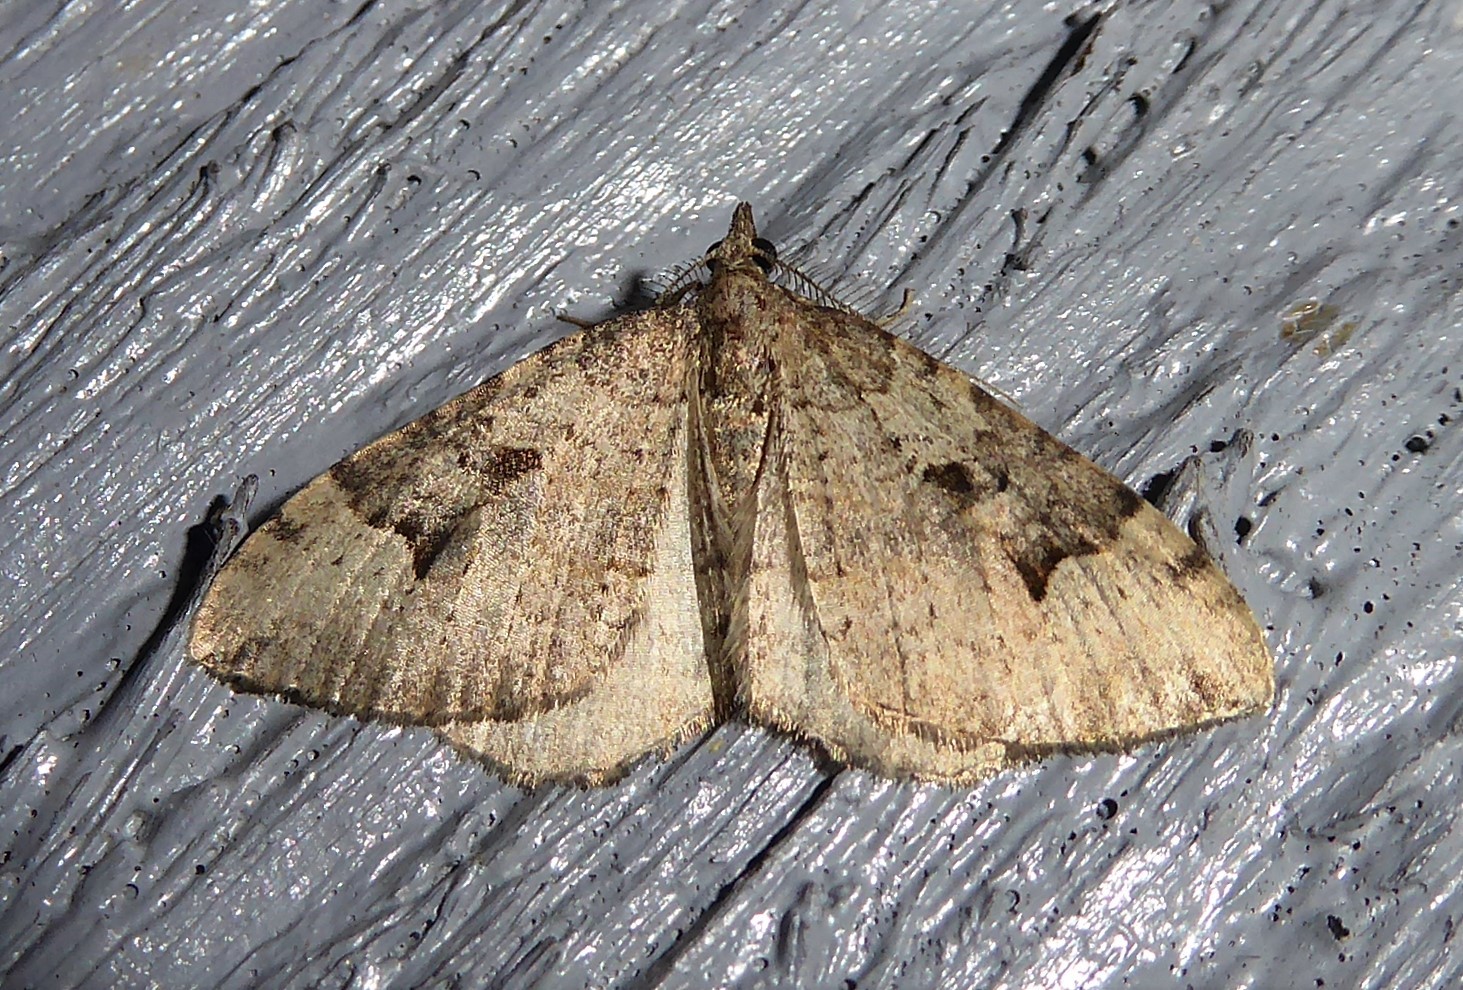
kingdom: Animalia
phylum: Arthropoda
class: Insecta
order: Lepidoptera
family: Geometridae
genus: Epyaxa
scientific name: Epyaxa rosearia
